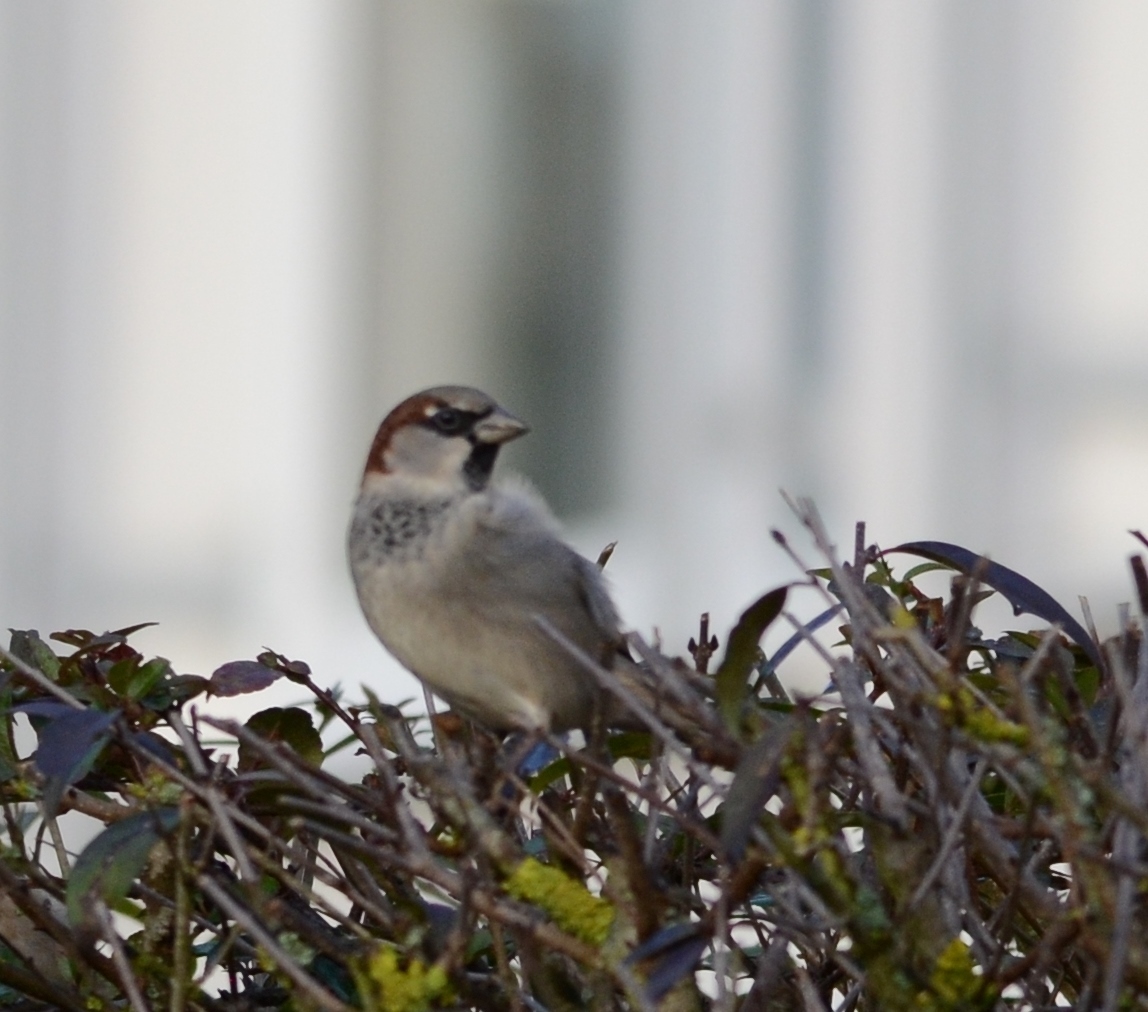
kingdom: Animalia
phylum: Chordata
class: Aves
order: Passeriformes
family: Passeridae
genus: Passer
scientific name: Passer domesticus
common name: House sparrow
